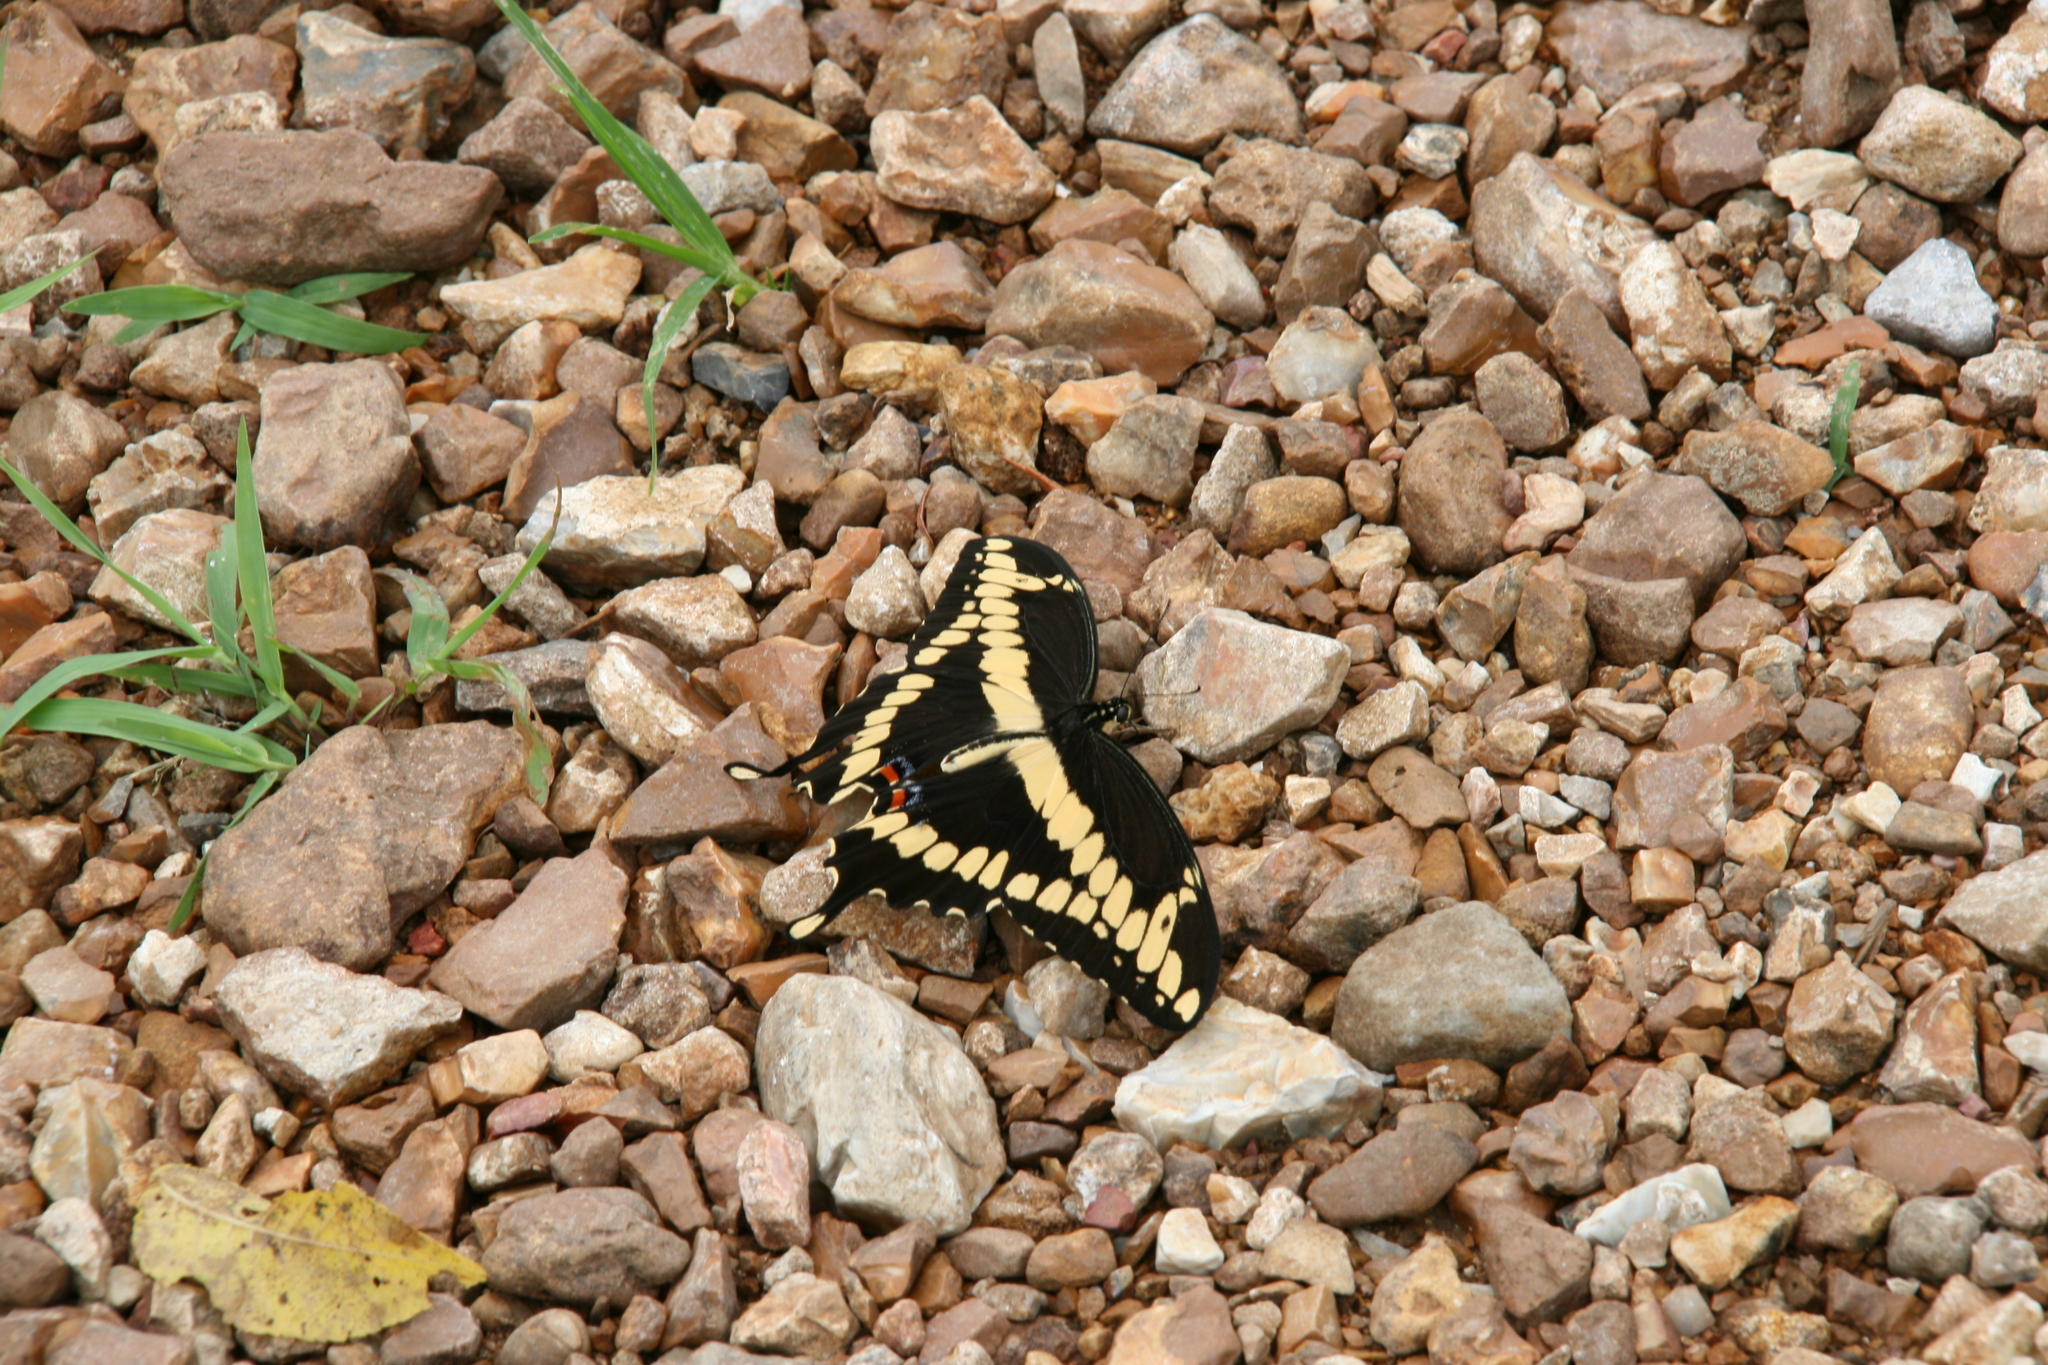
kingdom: Animalia
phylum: Arthropoda
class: Insecta
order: Lepidoptera
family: Papilionidae
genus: Papilio
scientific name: Papilio cresphontes
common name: Giant swallowtail
